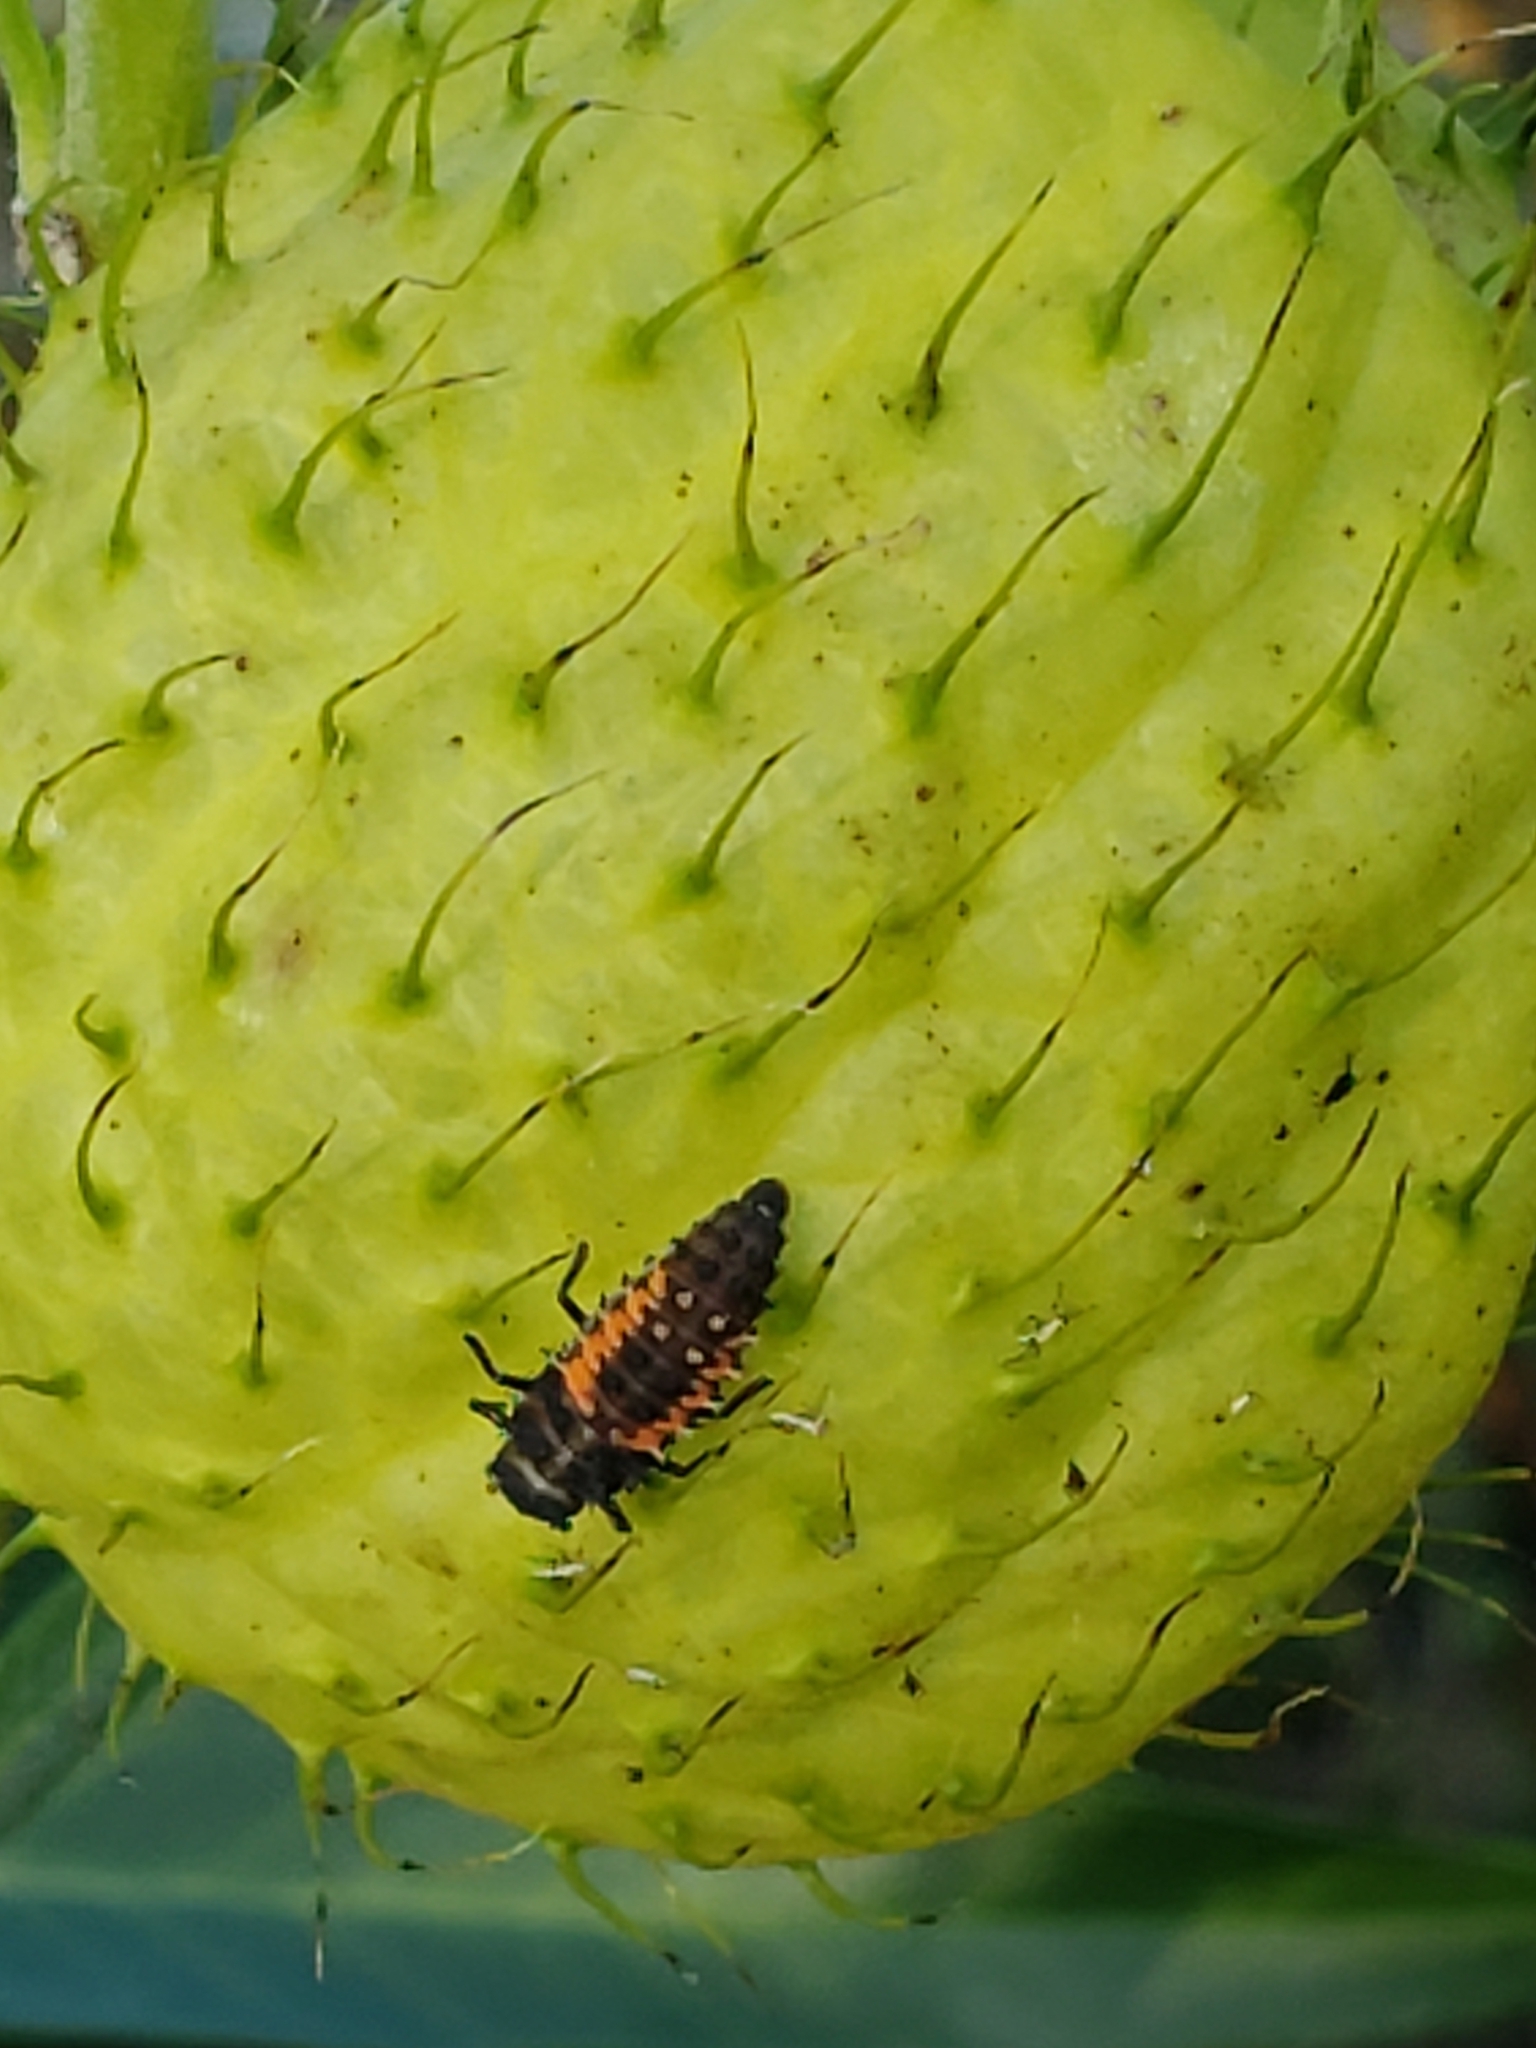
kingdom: Animalia
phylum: Arthropoda
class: Insecta
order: Coleoptera
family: Coccinellidae
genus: Harmonia
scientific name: Harmonia axyridis
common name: Harlequin ladybird
